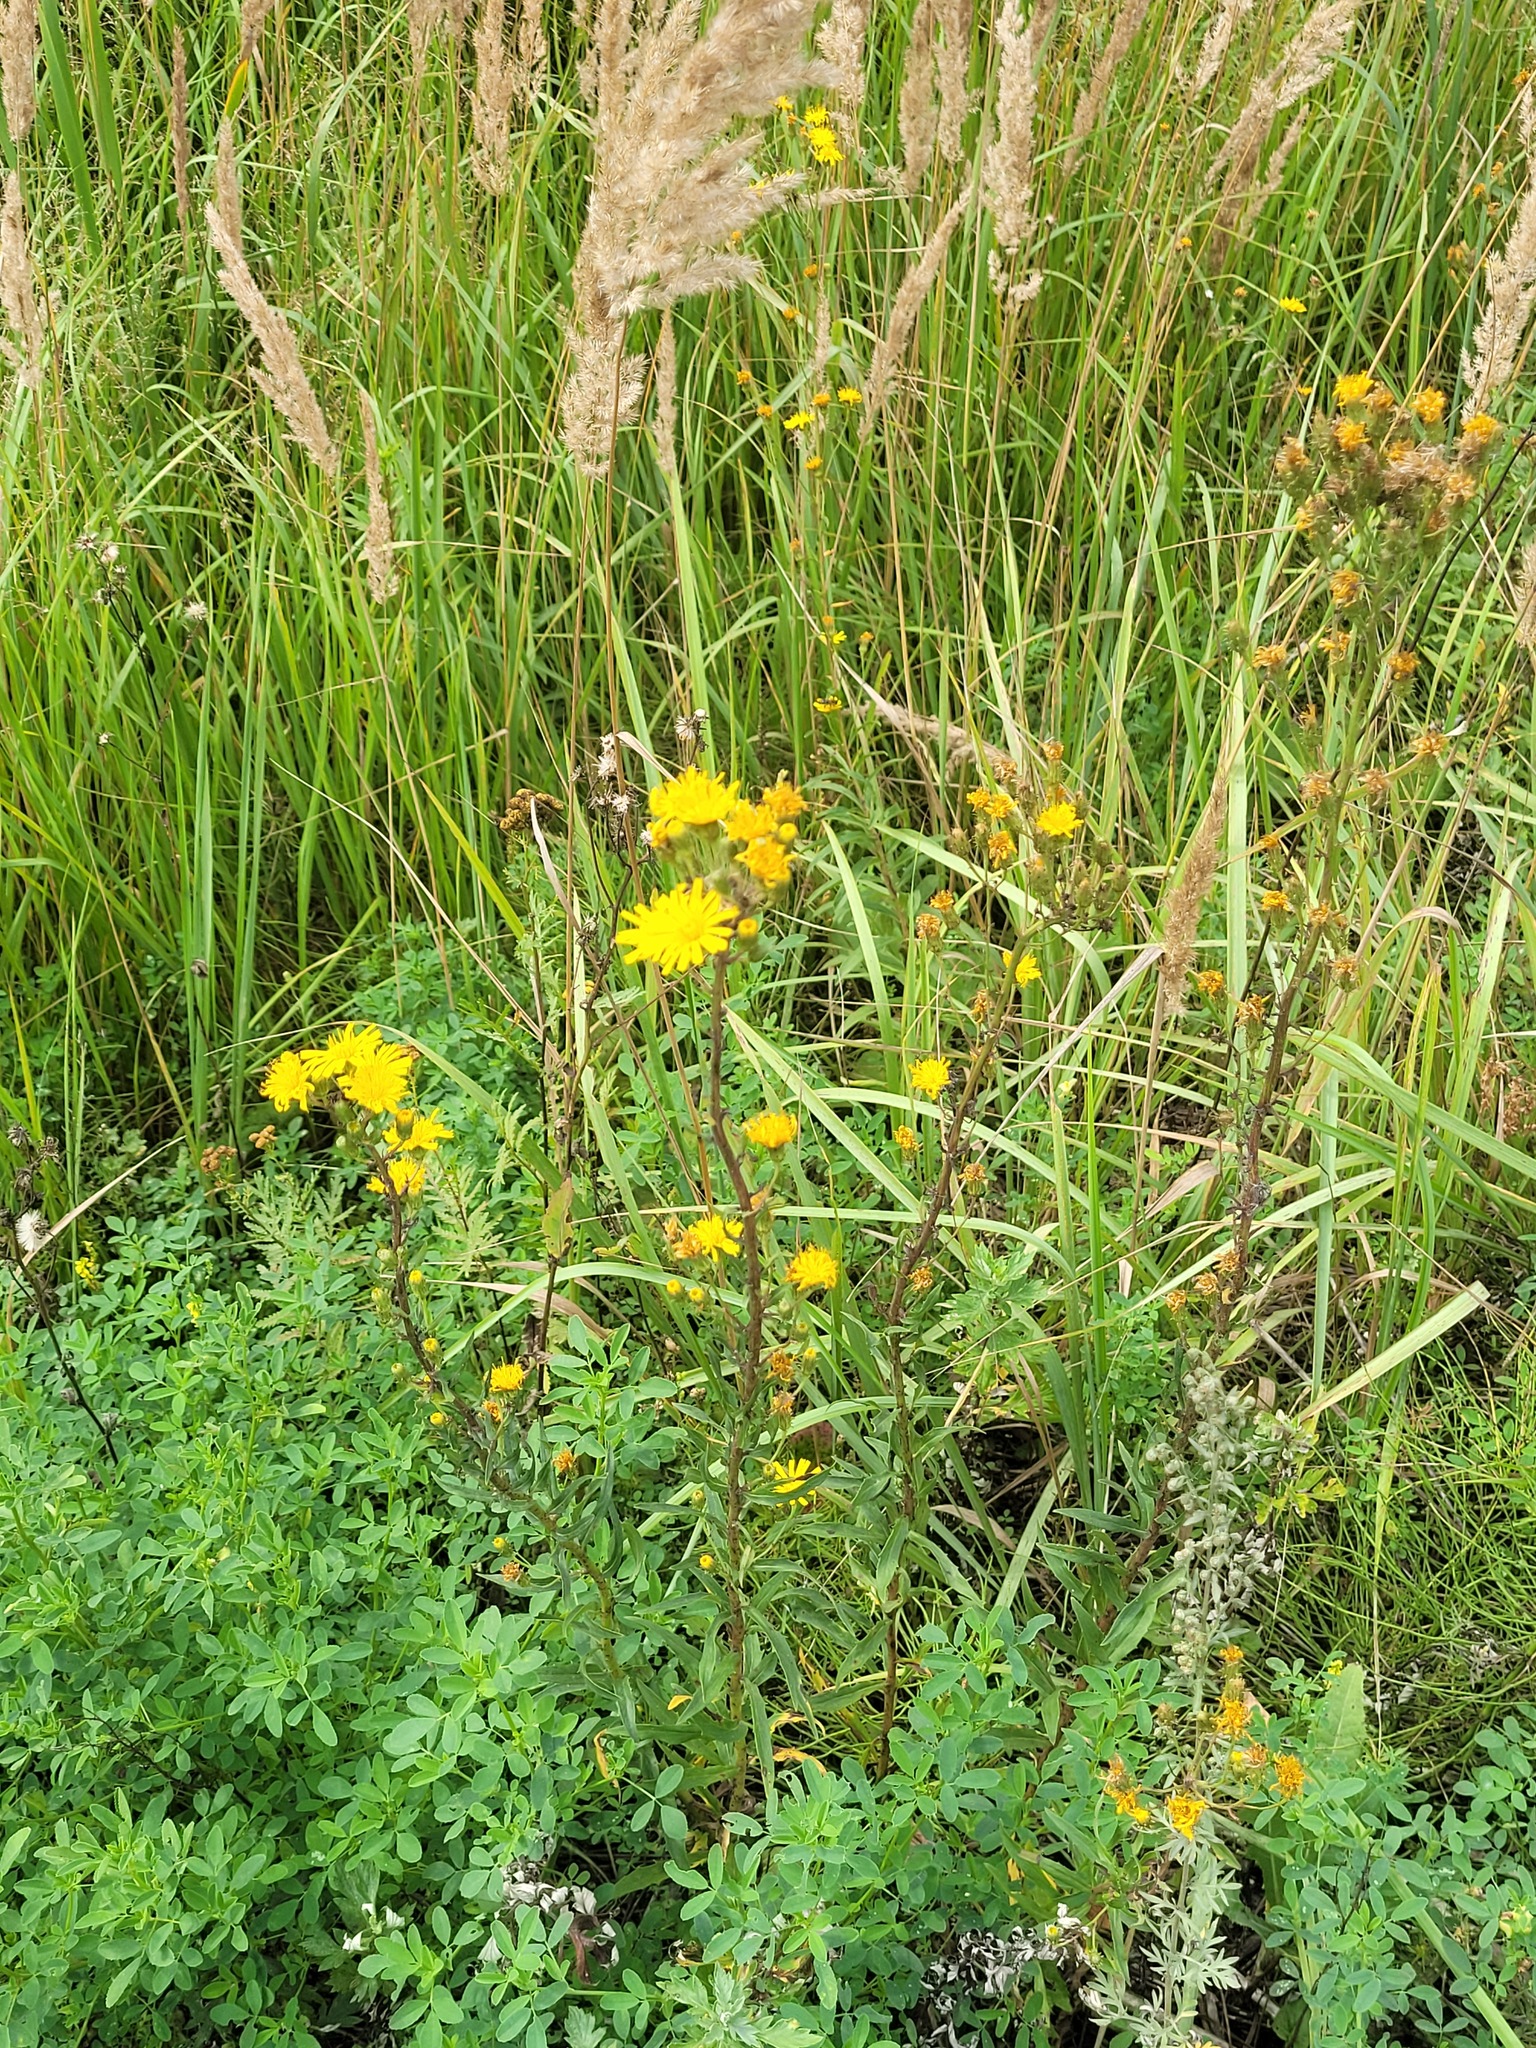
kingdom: Plantae
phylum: Tracheophyta
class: Magnoliopsida
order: Asterales
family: Asteraceae
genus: Hieracium
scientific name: Hieracium umbellatum
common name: Northern hawkweed
